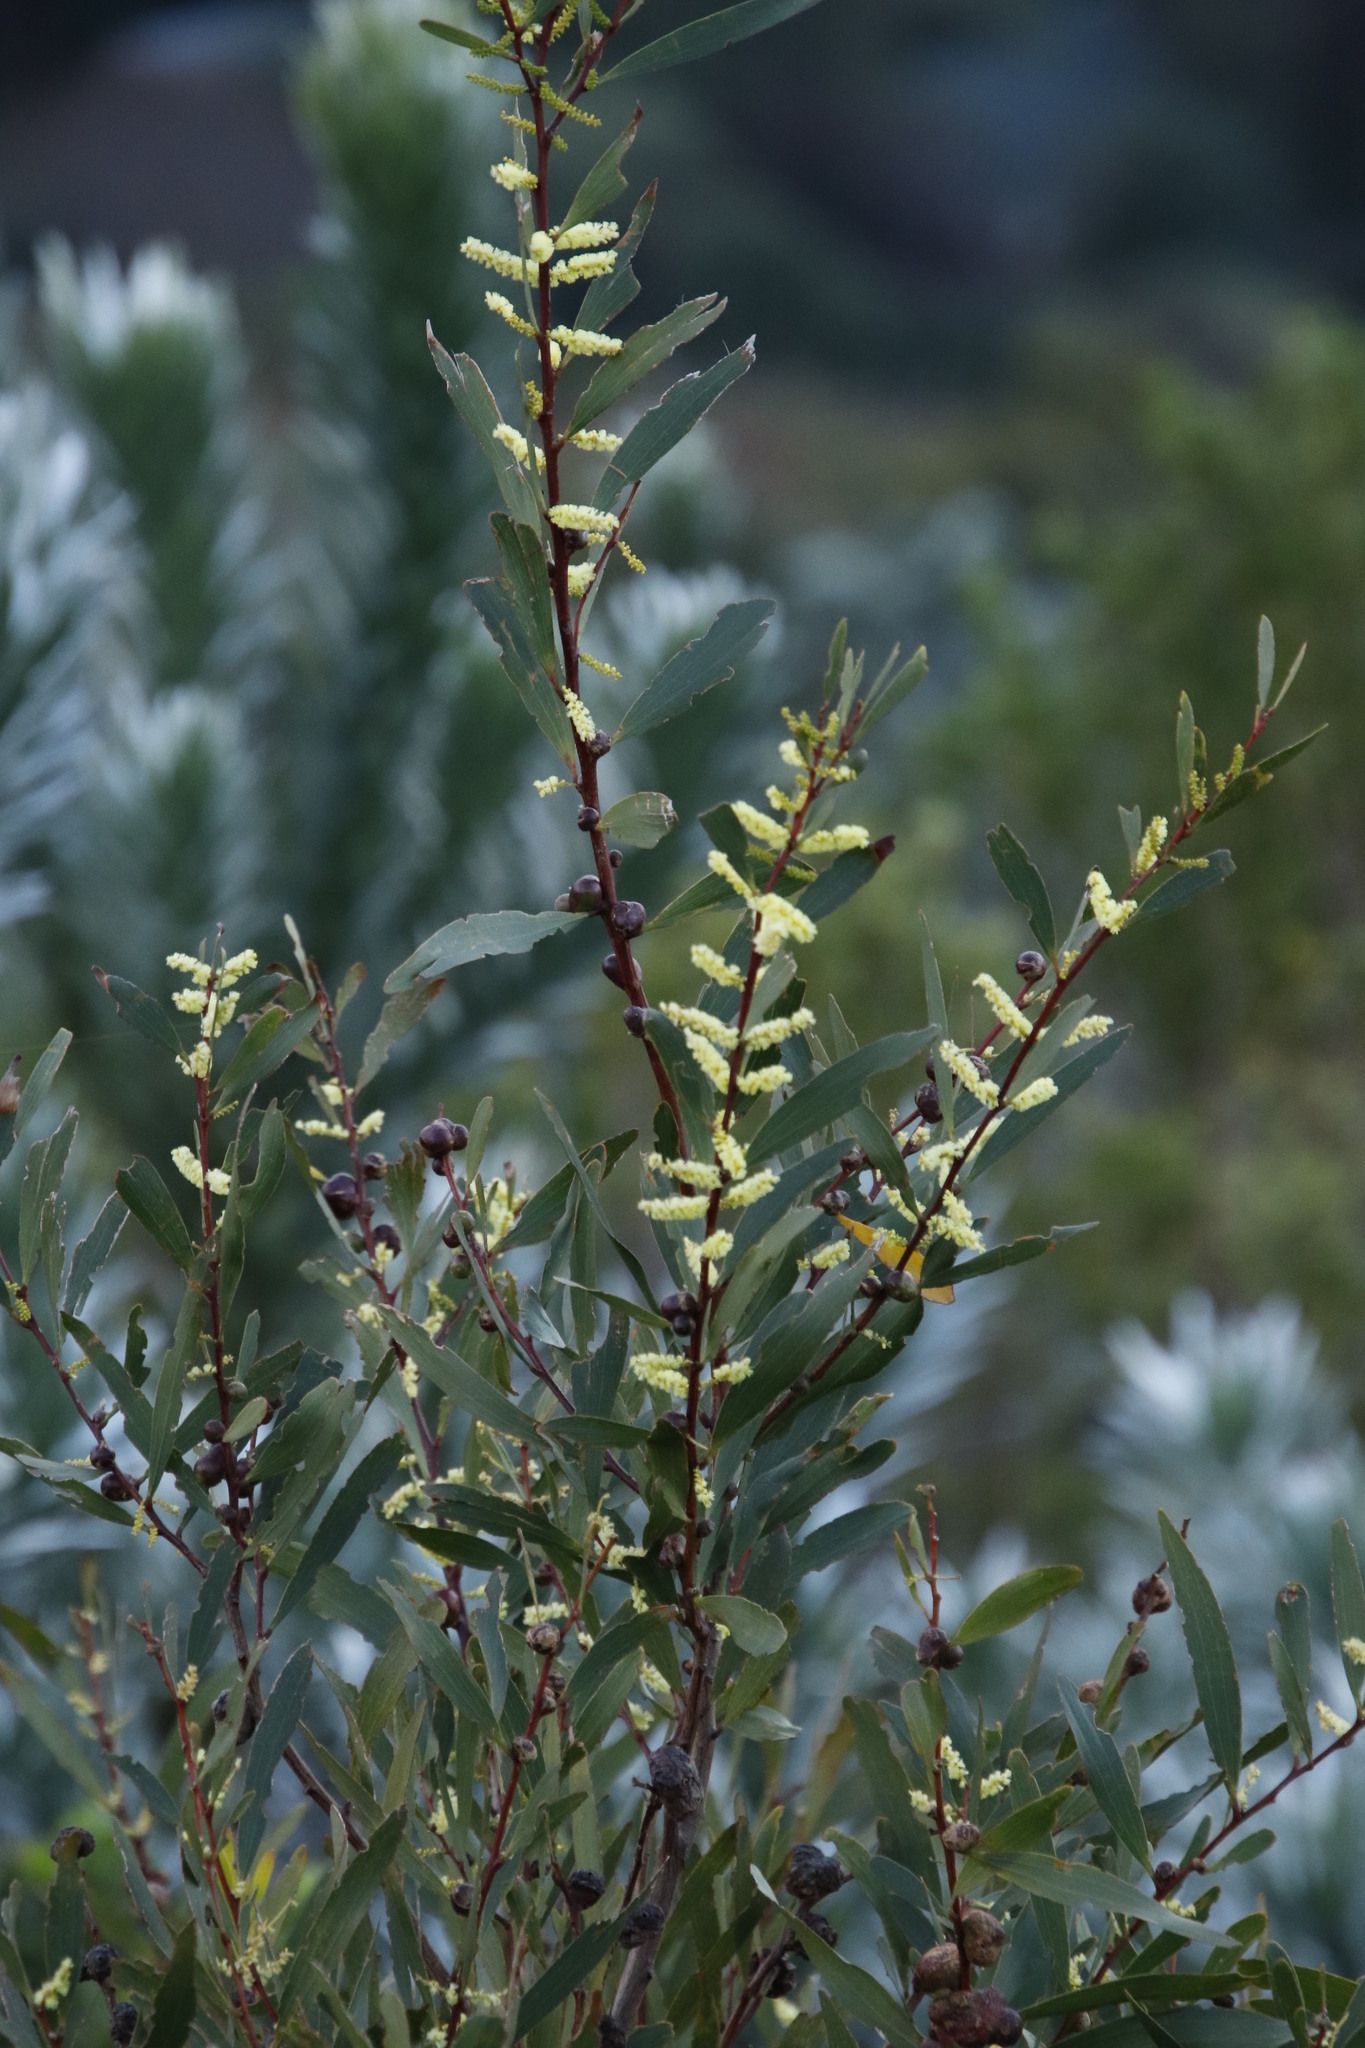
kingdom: Plantae
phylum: Tracheophyta
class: Magnoliopsida
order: Fabales
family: Fabaceae
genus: Acacia
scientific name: Acacia longifolia
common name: Sydney golden wattle
